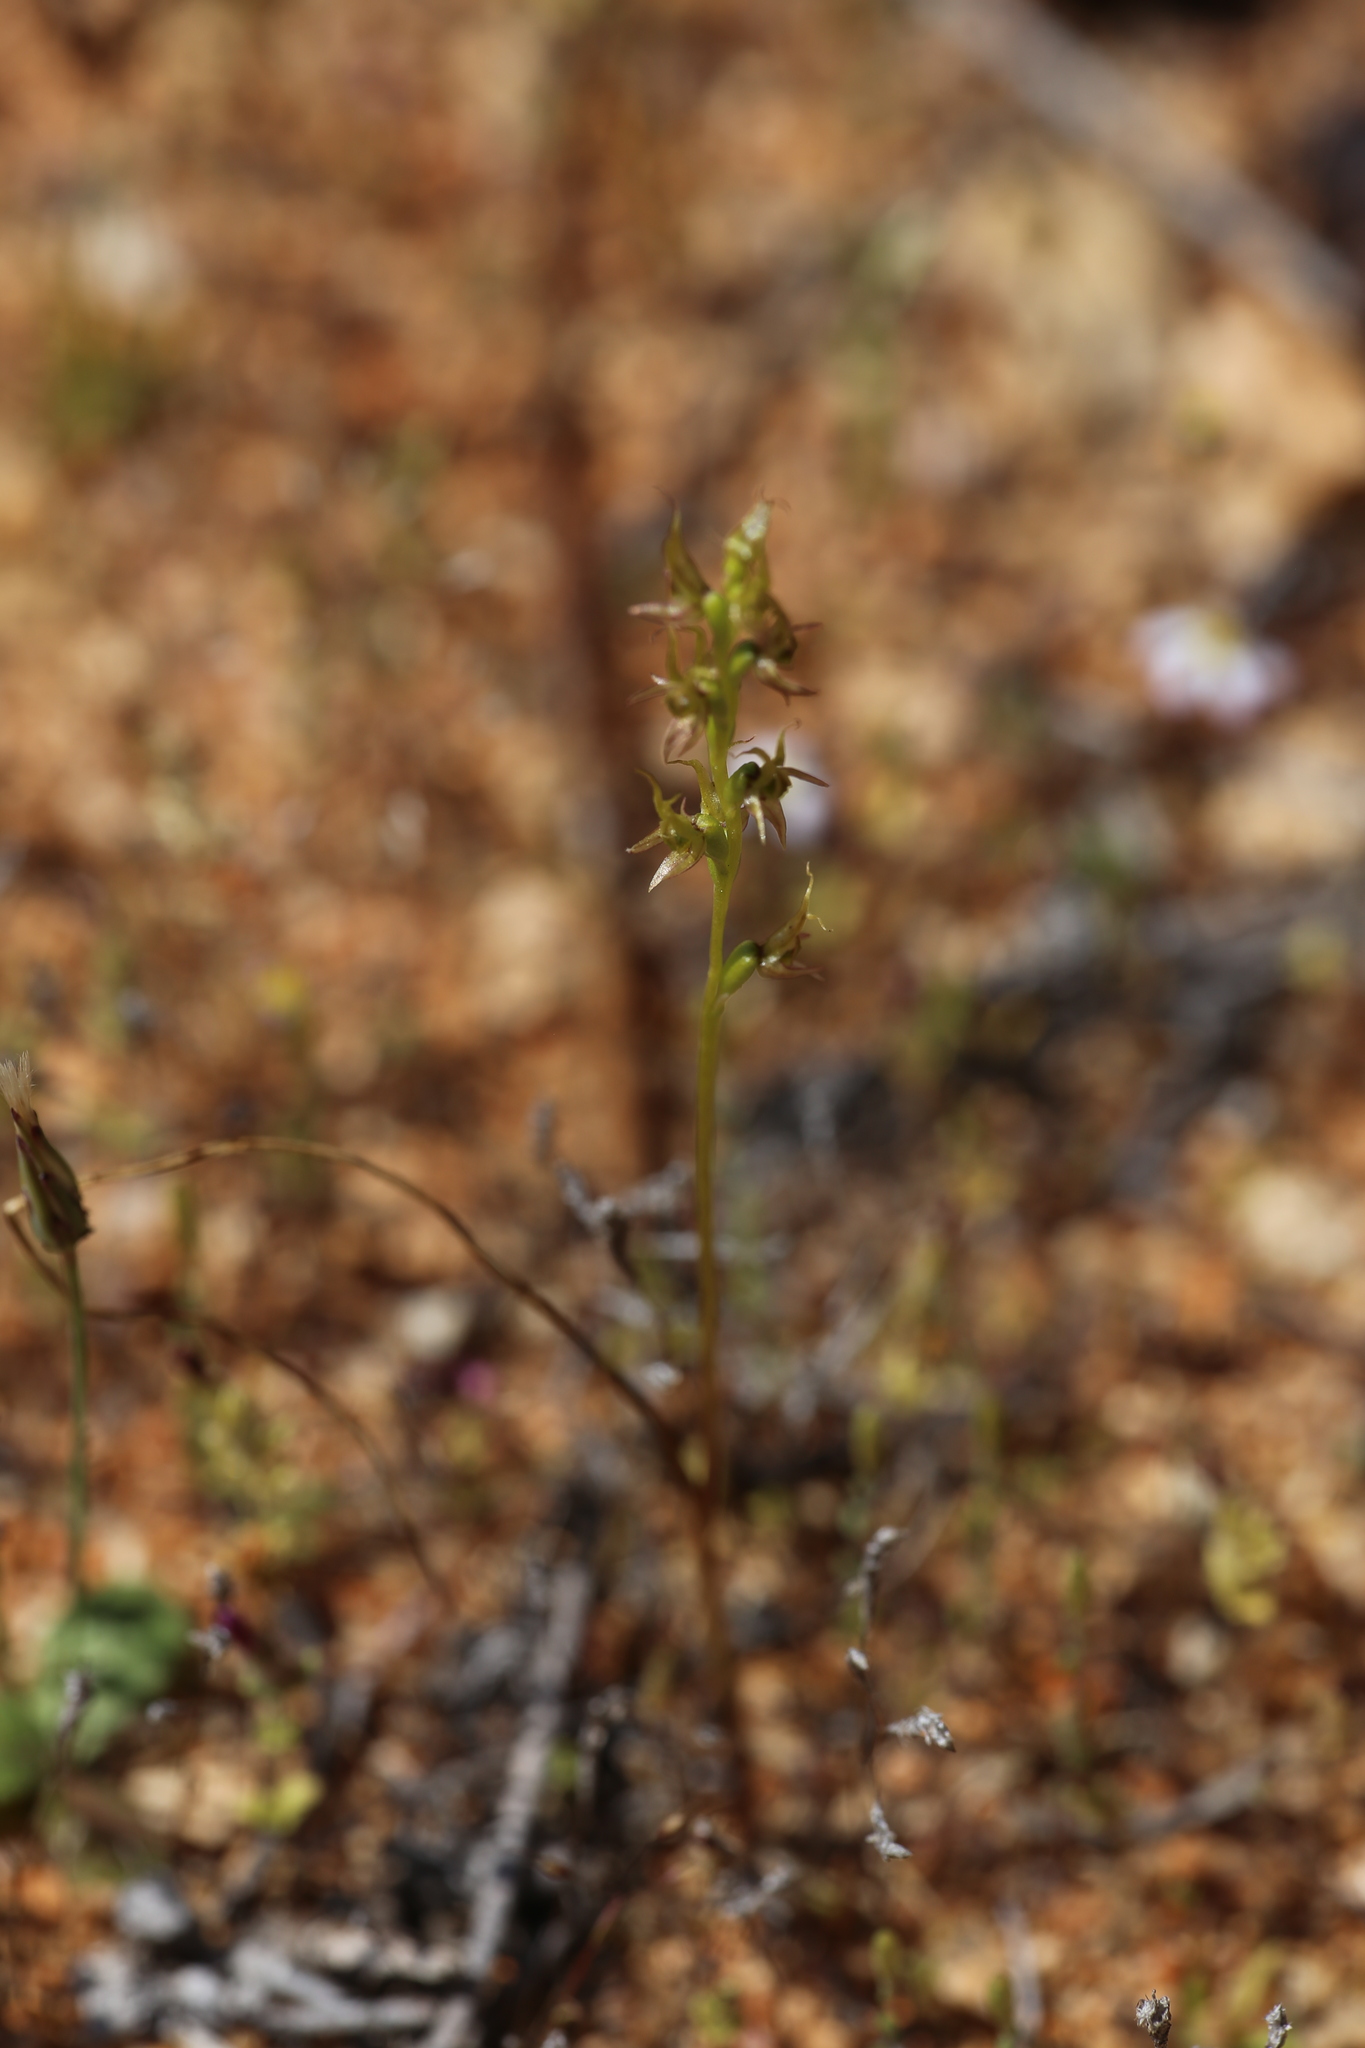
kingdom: Plantae
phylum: Tracheophyta
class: Liliopsida
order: Asparagales
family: Orchidaceae
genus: Prasophyllum
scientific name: Prasophyllum gracile
